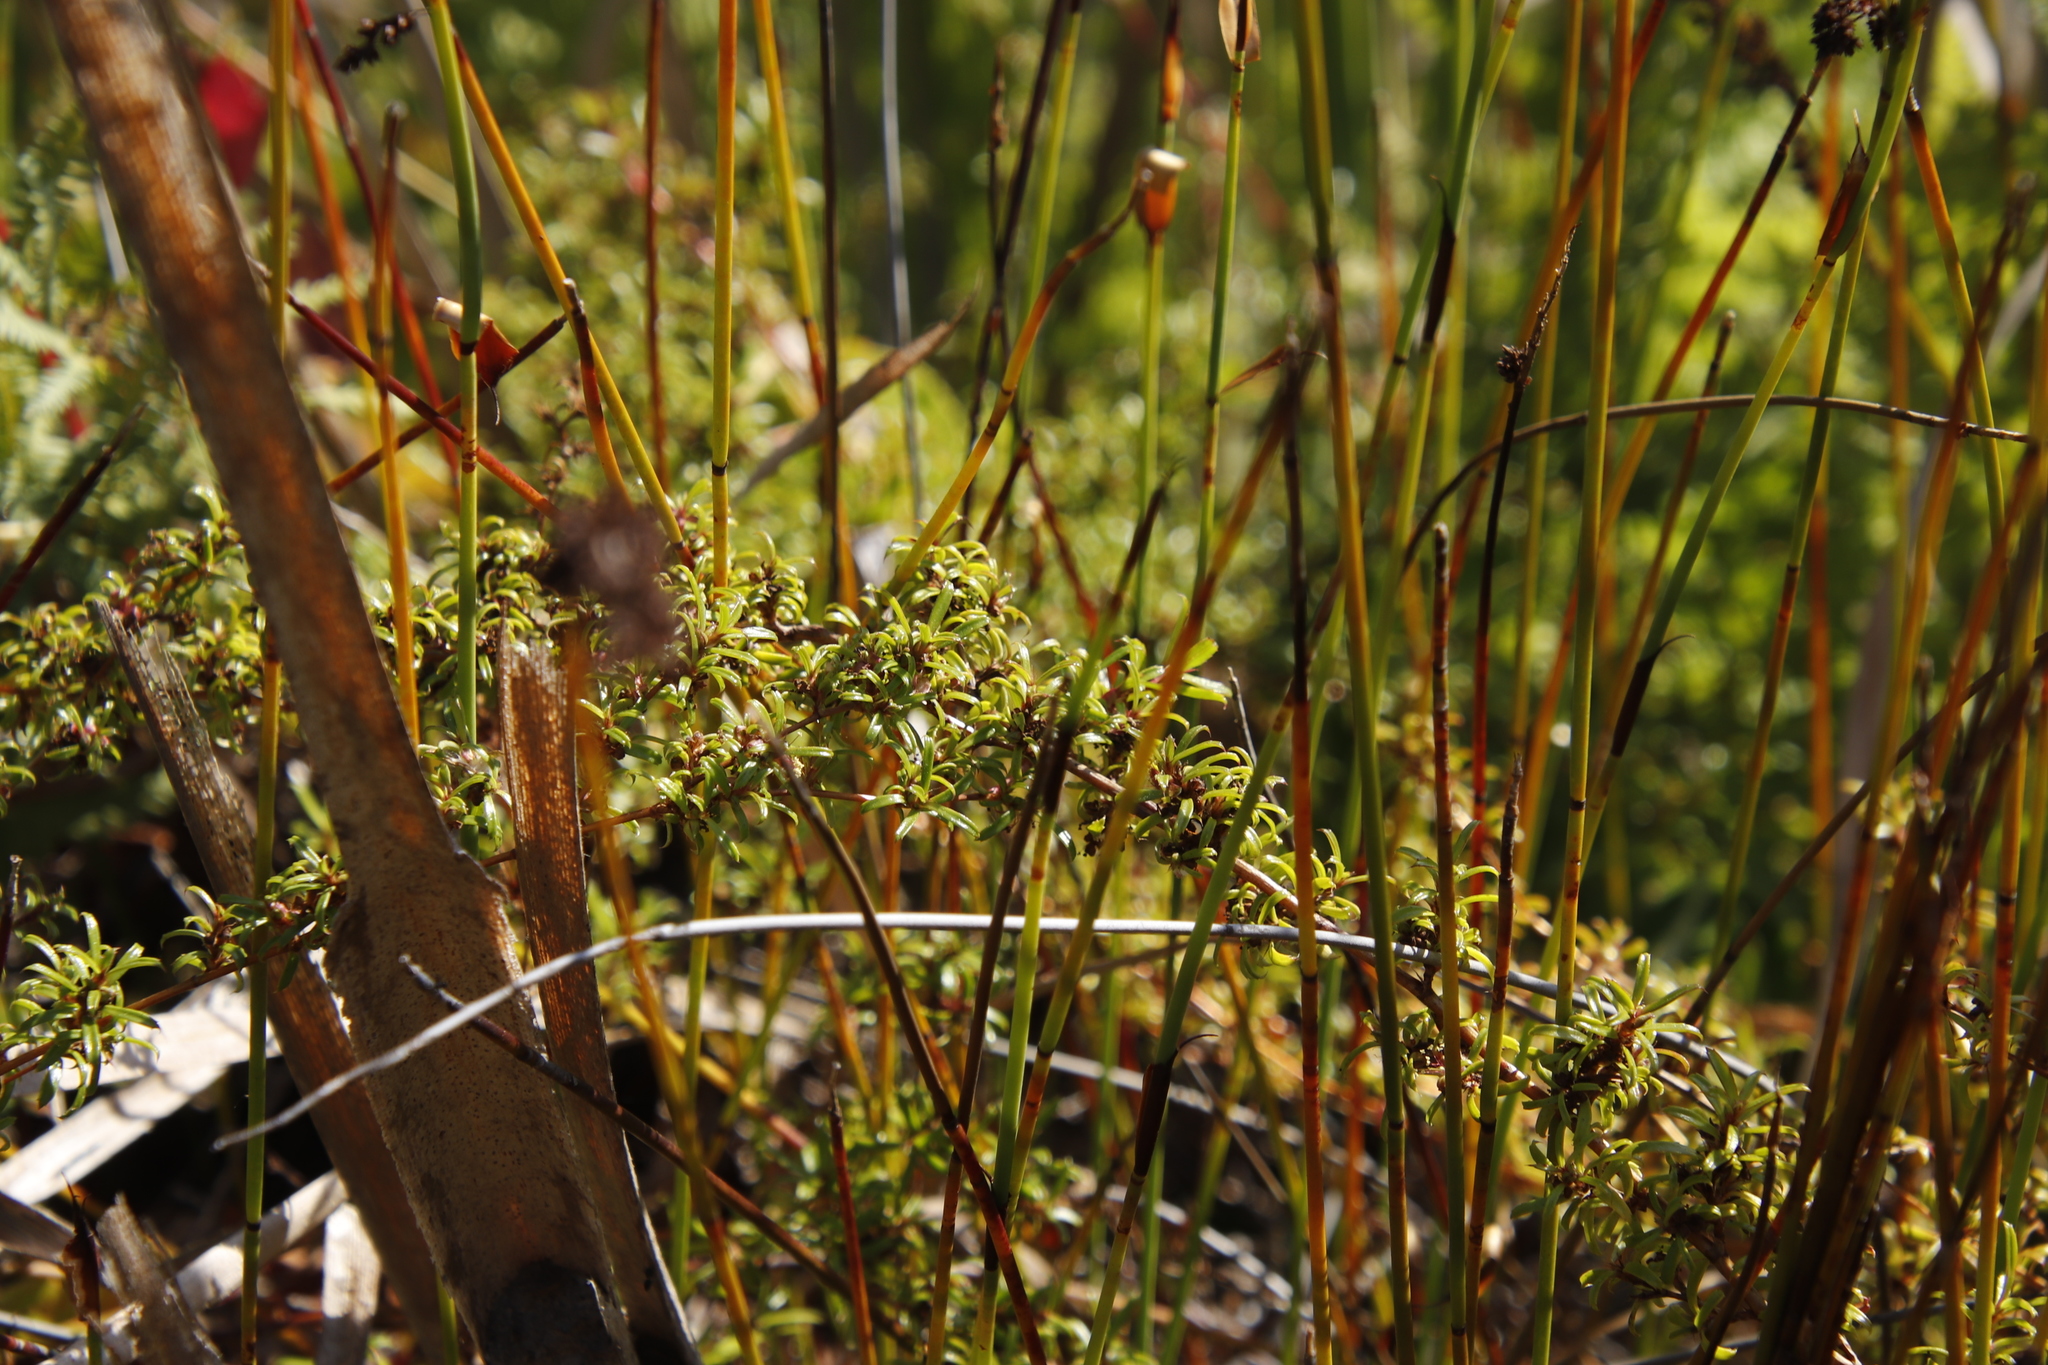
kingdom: Plantae
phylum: Tracheophyta
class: Magnoliopsida
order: Rosales
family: Rosaceae
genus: Cliffortia
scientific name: Cliffortia ferruginea
